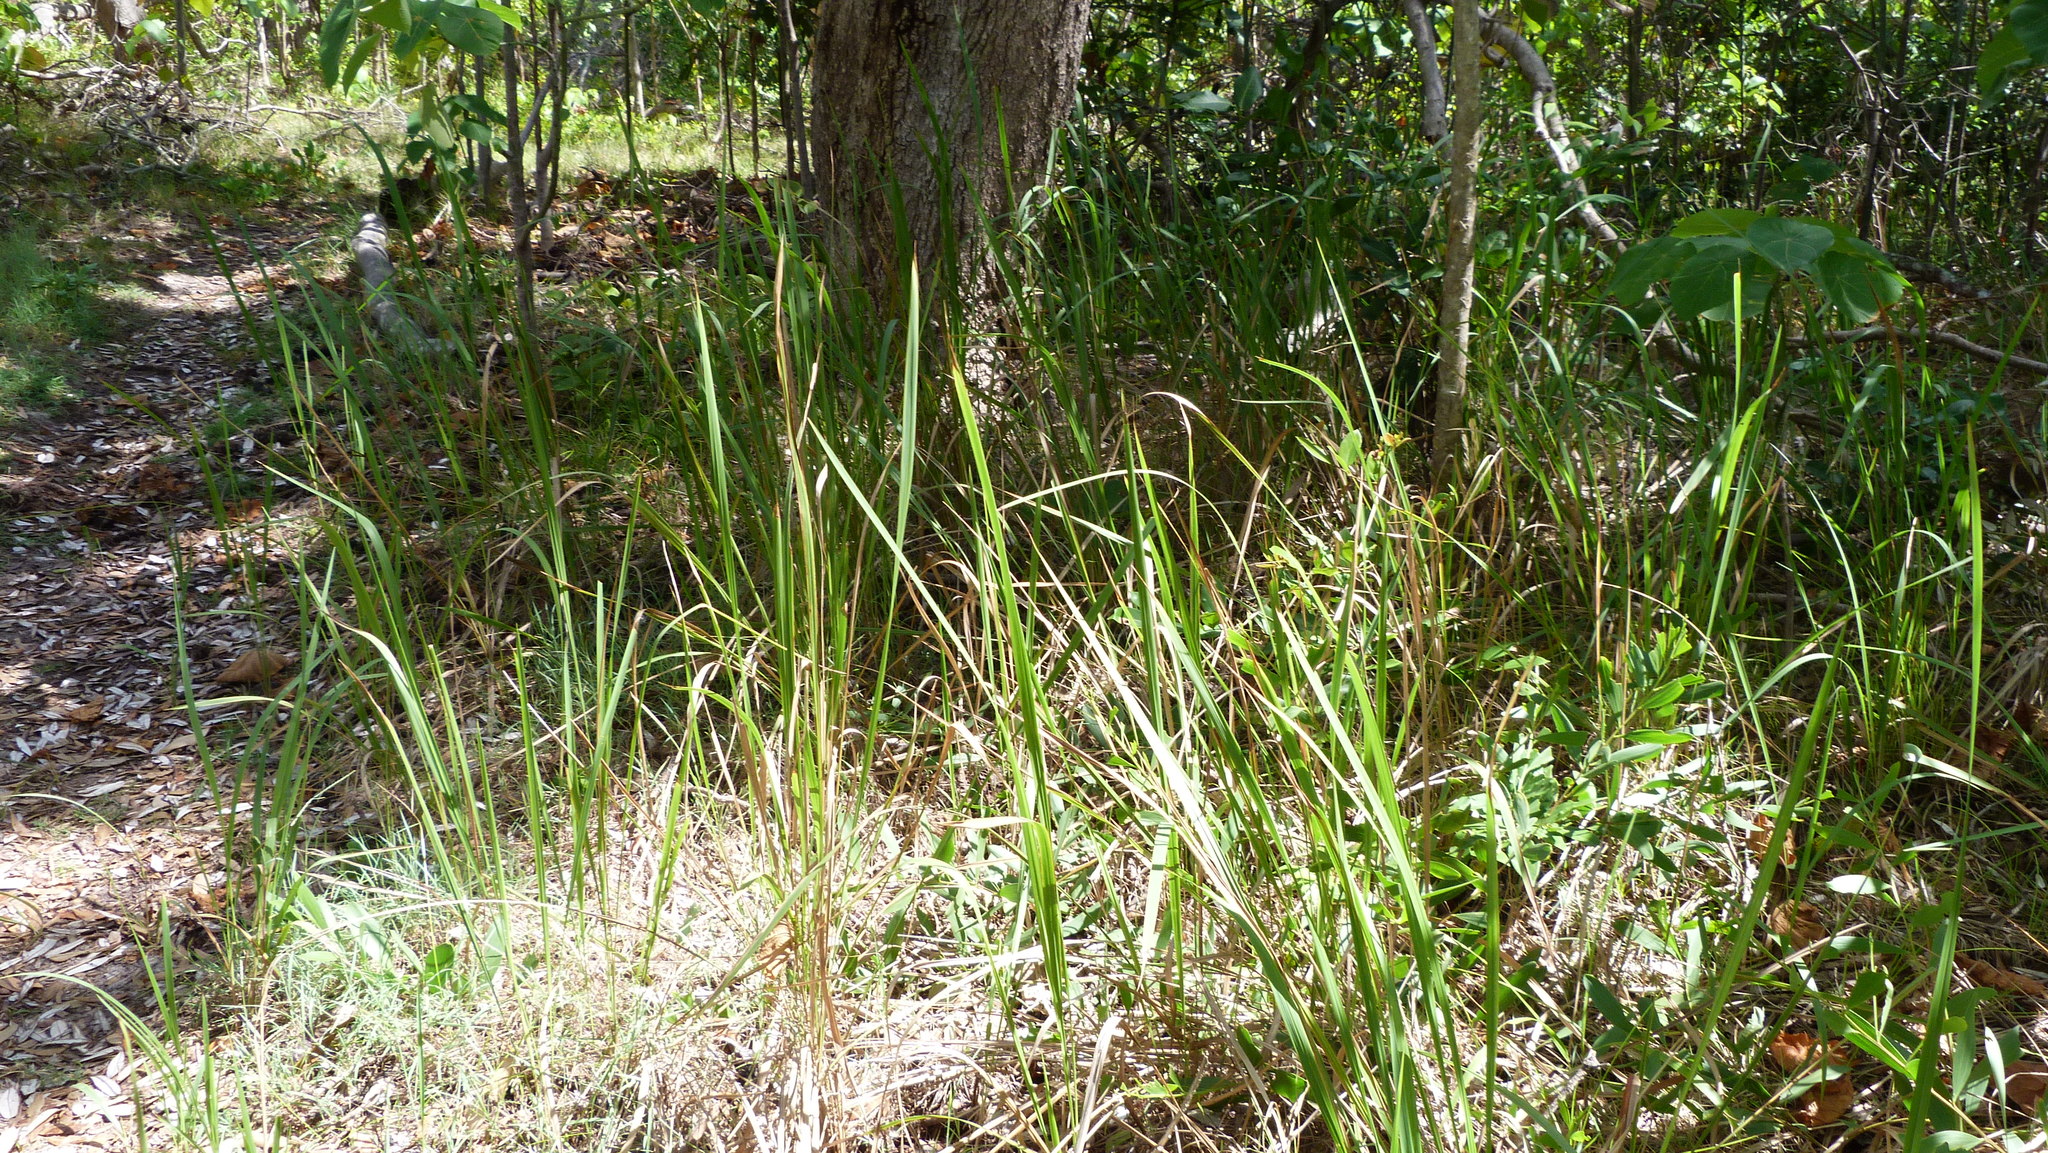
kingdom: Plantae
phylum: Tracheophyta
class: Liliopsida
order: Poales
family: Poaceae
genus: Imperata
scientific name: Imperata cylindrica
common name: Cogongrass
